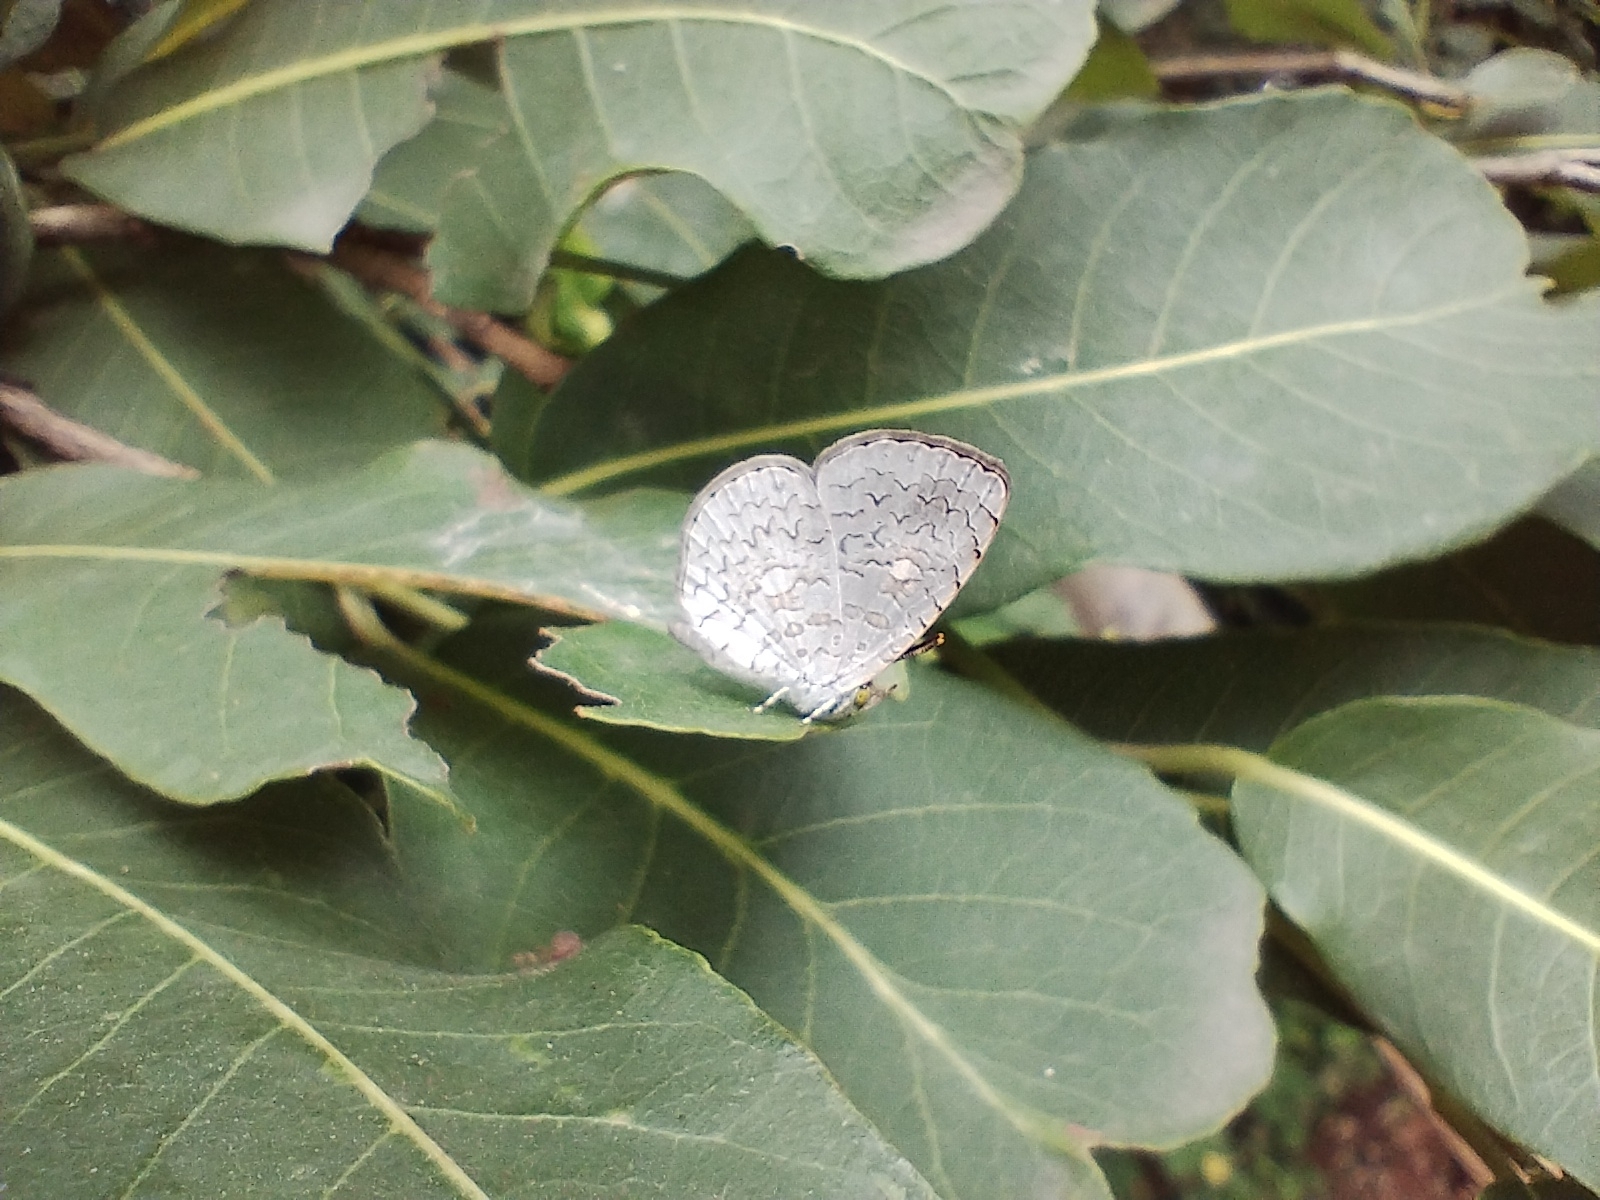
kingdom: Animalia
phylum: Arthropoda
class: Insecta
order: Lepidoptera
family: Lycaenidae
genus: Spalgis
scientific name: Spalgis epius
